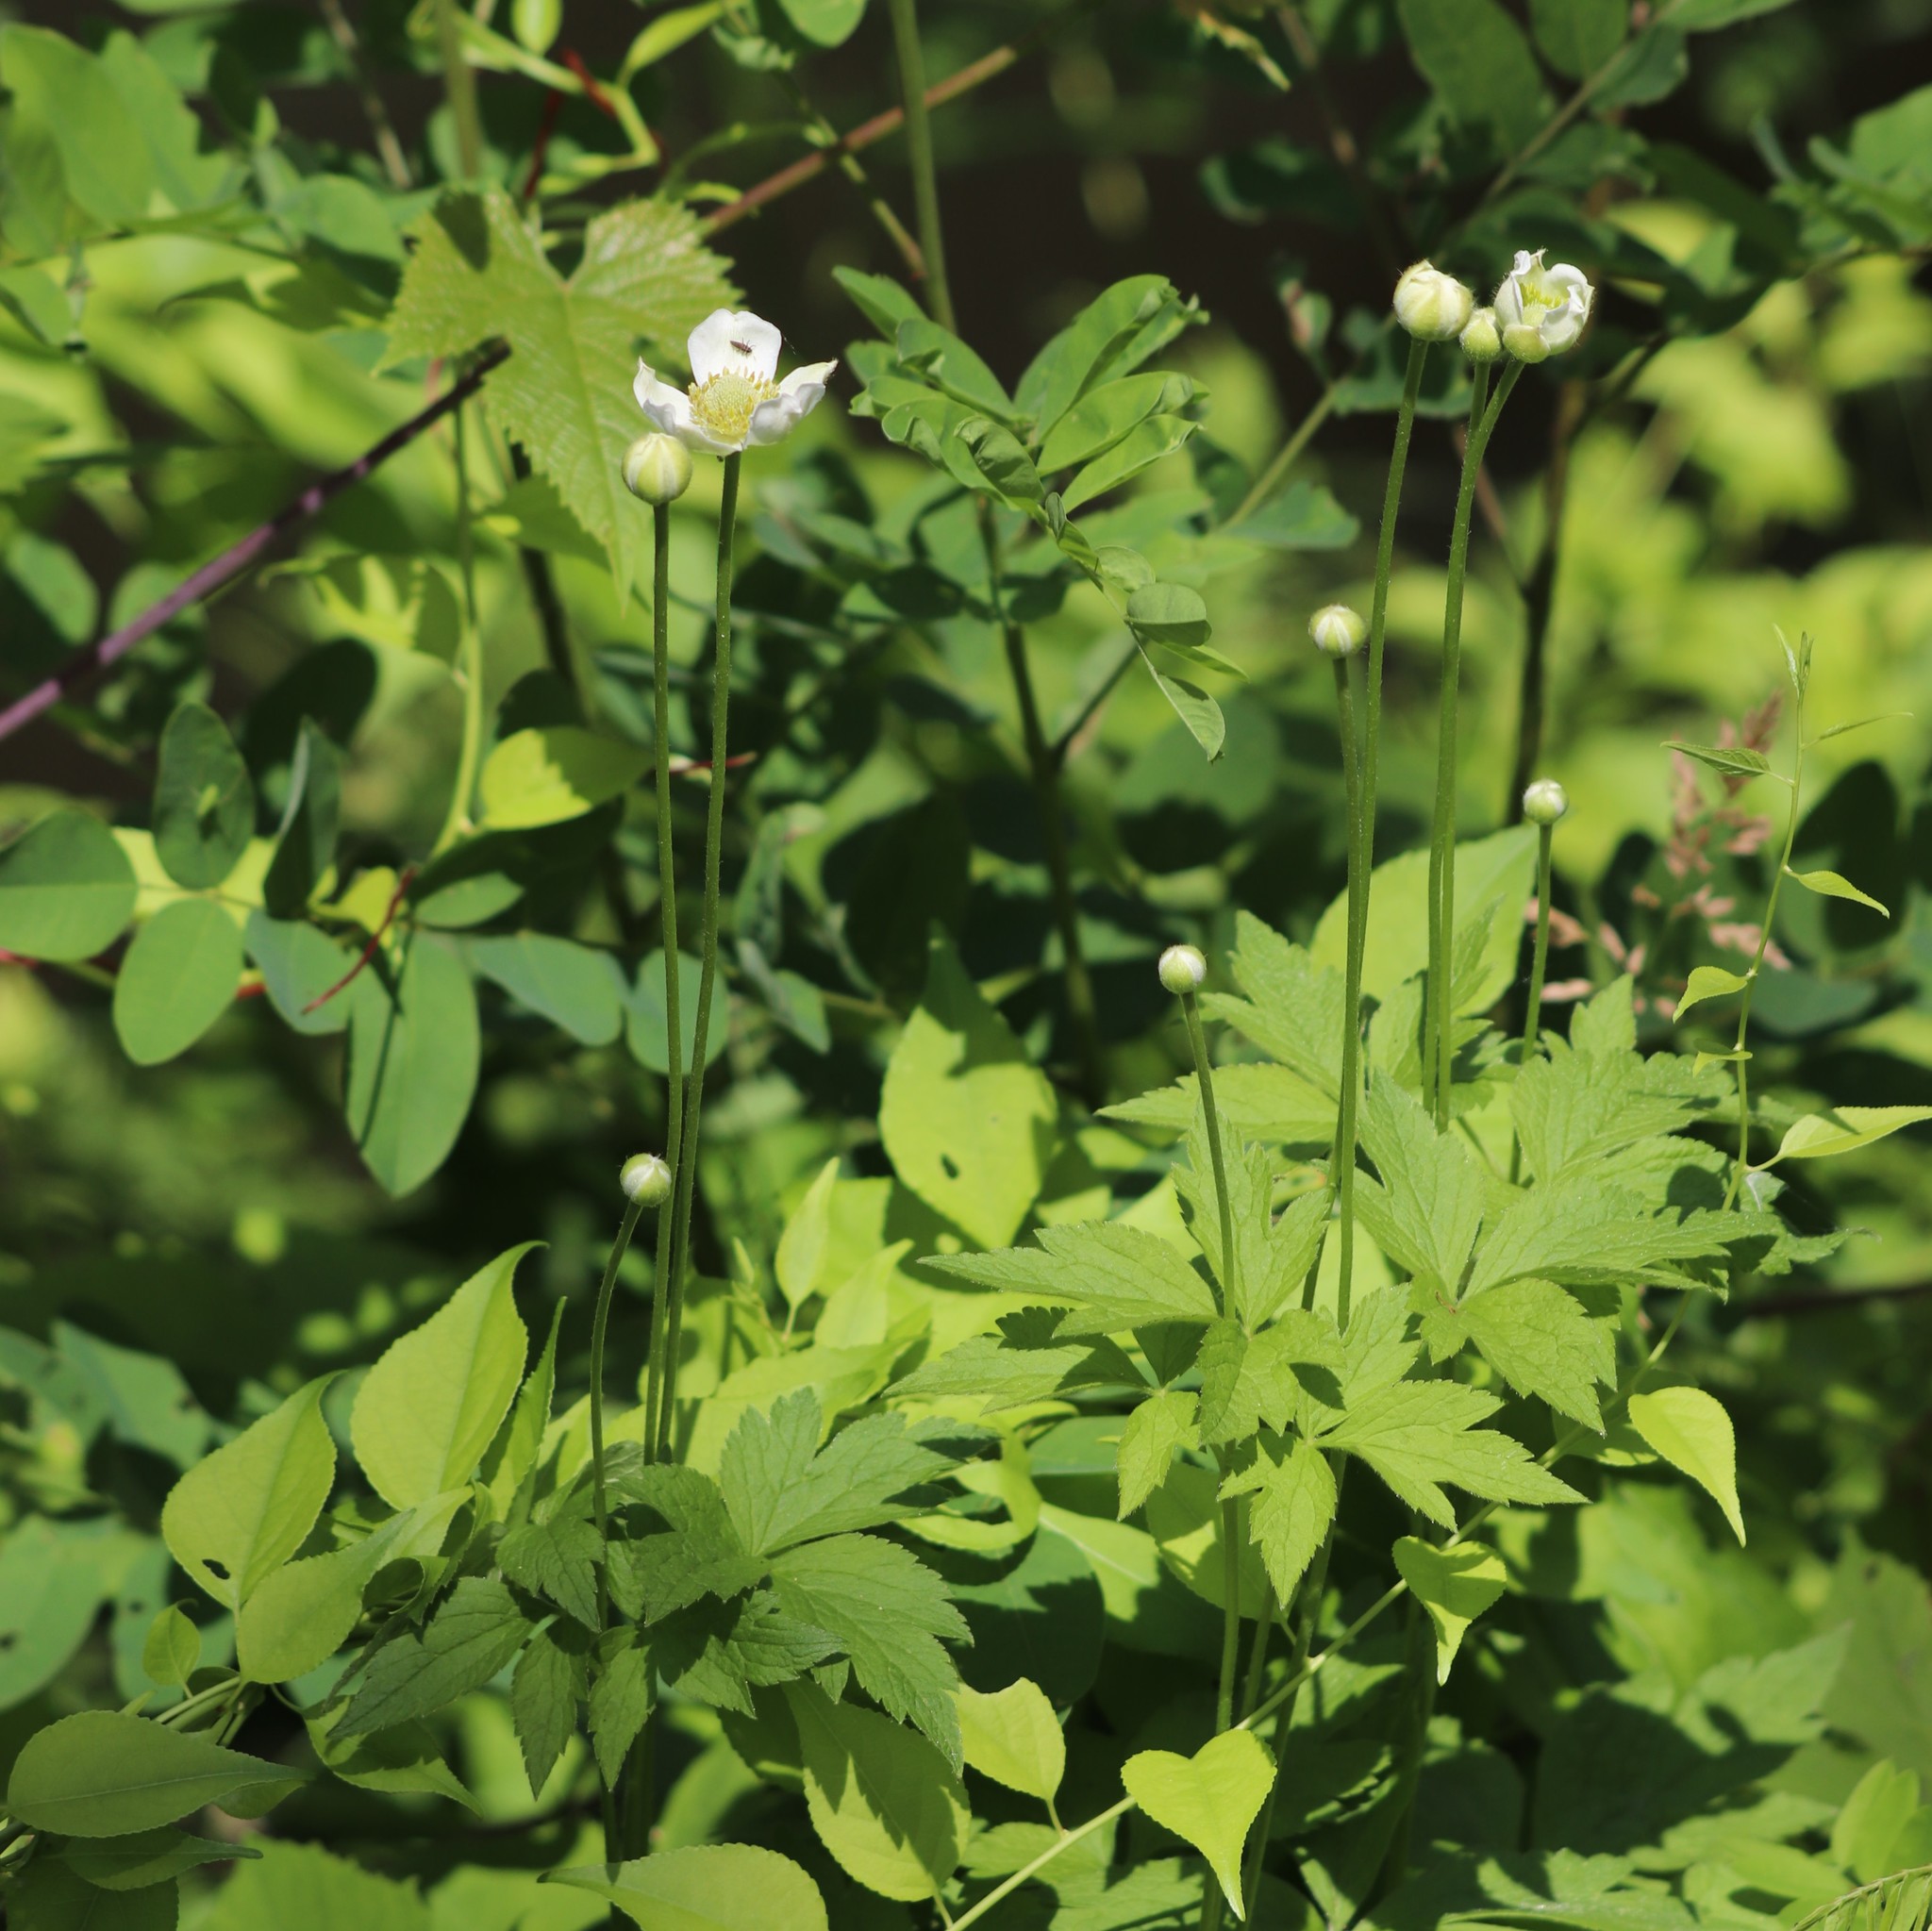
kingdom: Plantae
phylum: Tracheophyta
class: Magnoliopsida
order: Ranunculales
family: Ranunculaceae
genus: Anemone
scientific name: Anemone virginiana
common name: Tall anemone
